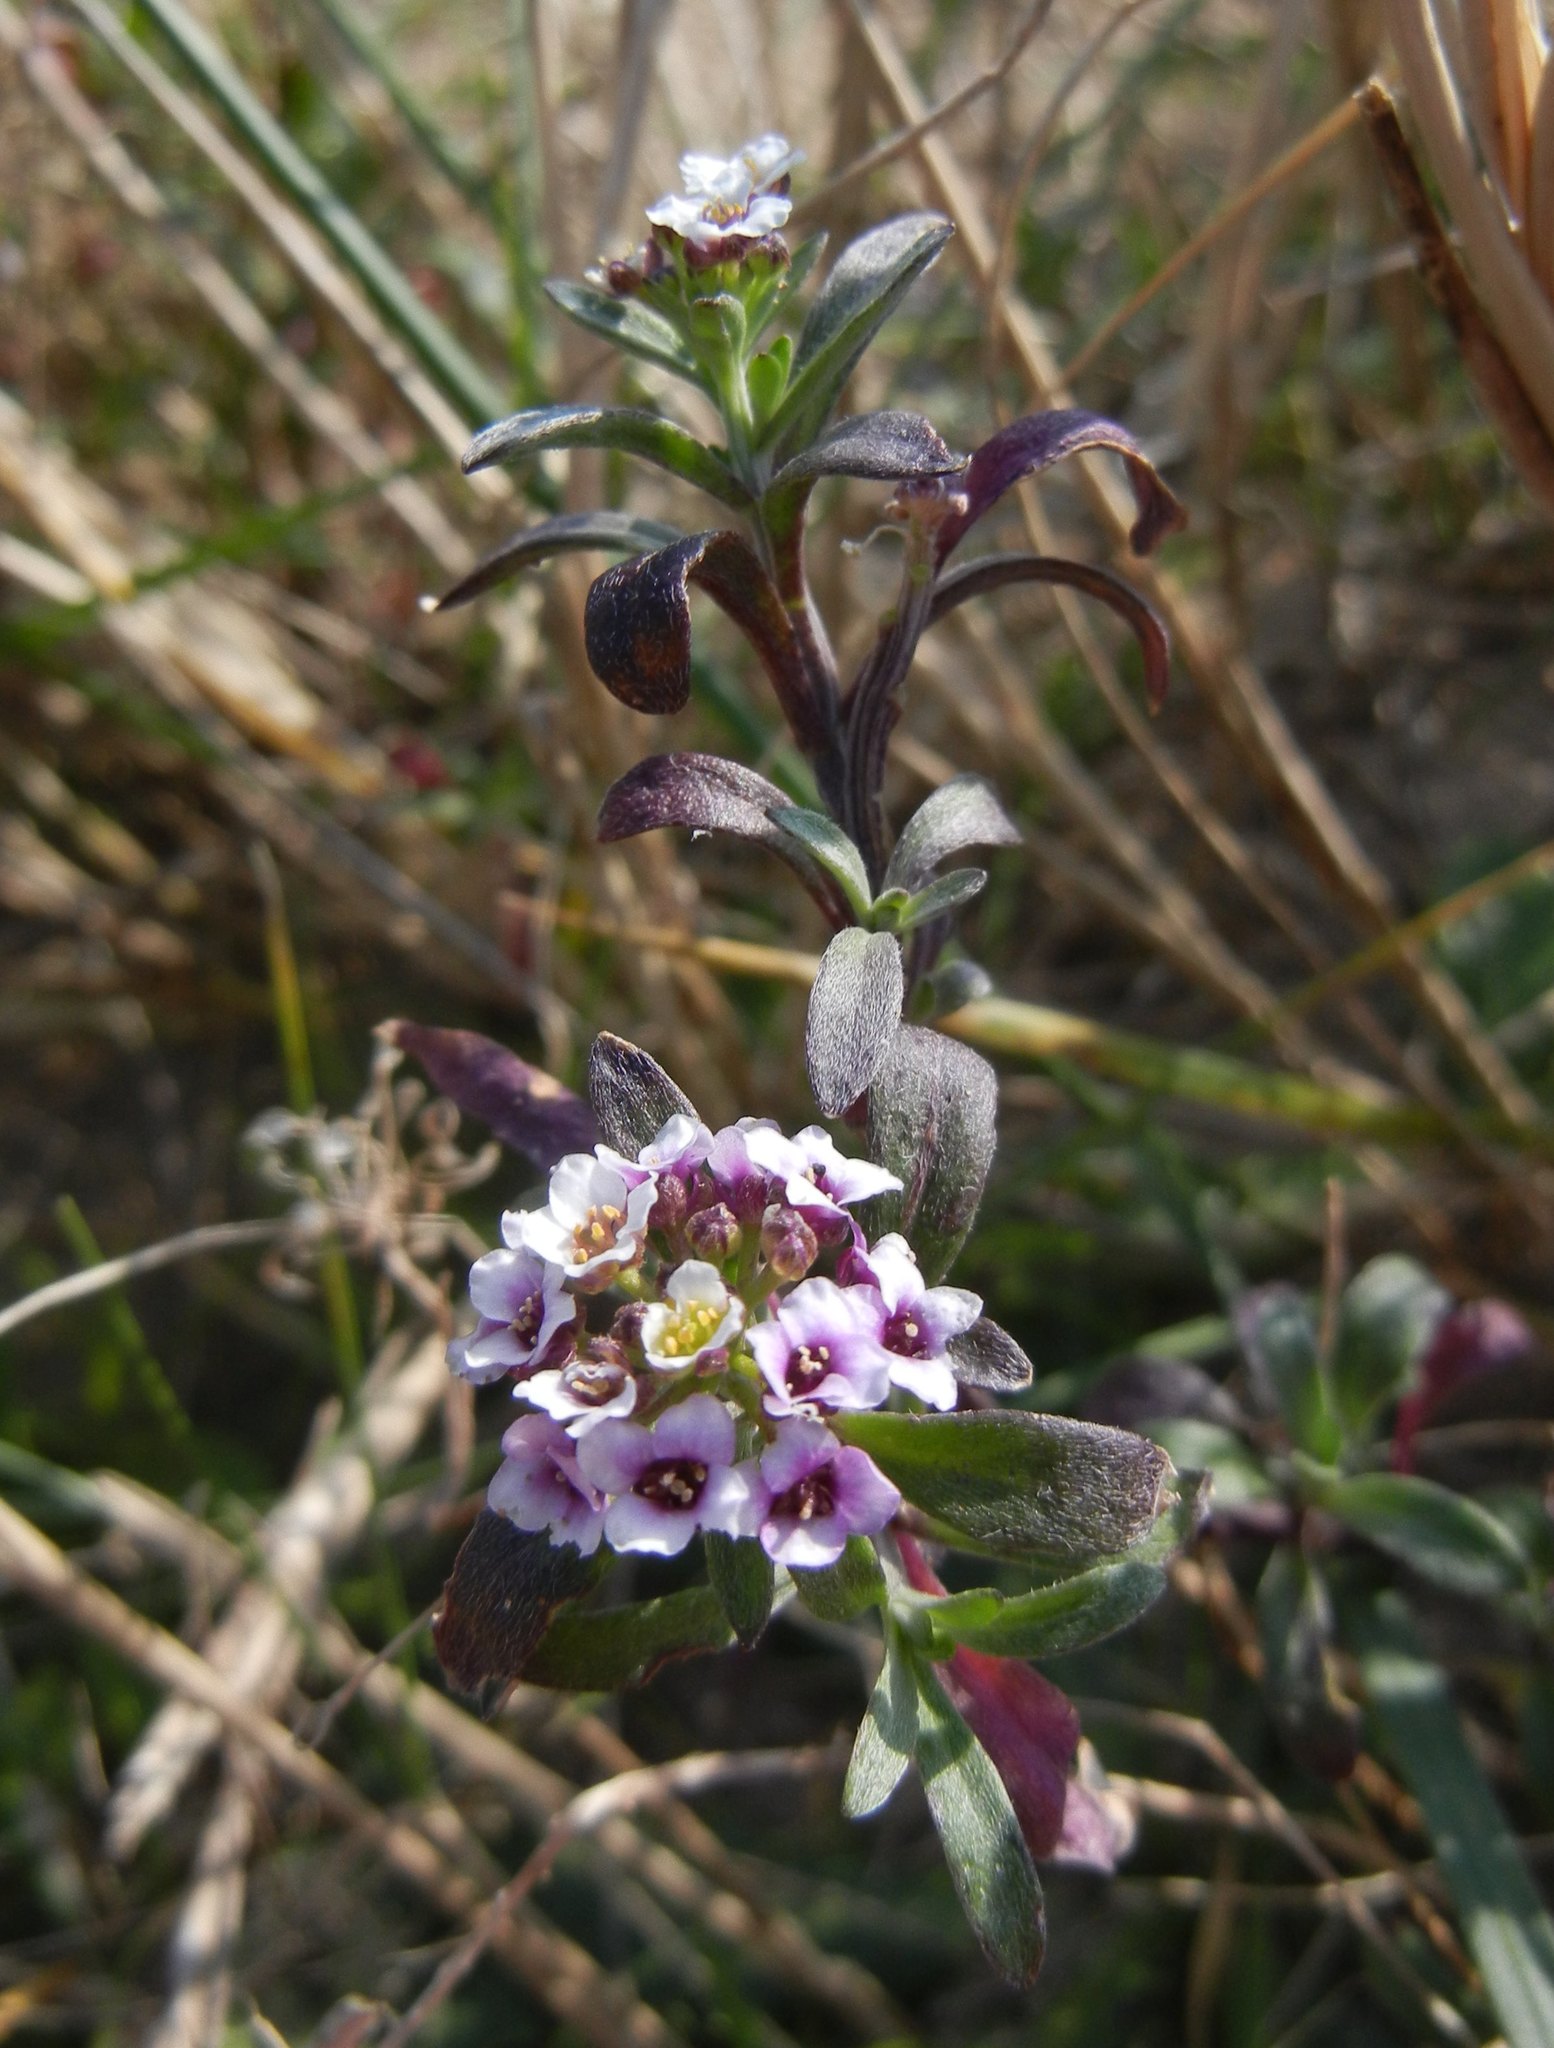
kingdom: Plantae
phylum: Tracheophyta
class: Magnoliopsida
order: Brassicales
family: Brassicaceae
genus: Lobularia
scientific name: Lobularia maritima
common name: Sweet alison
